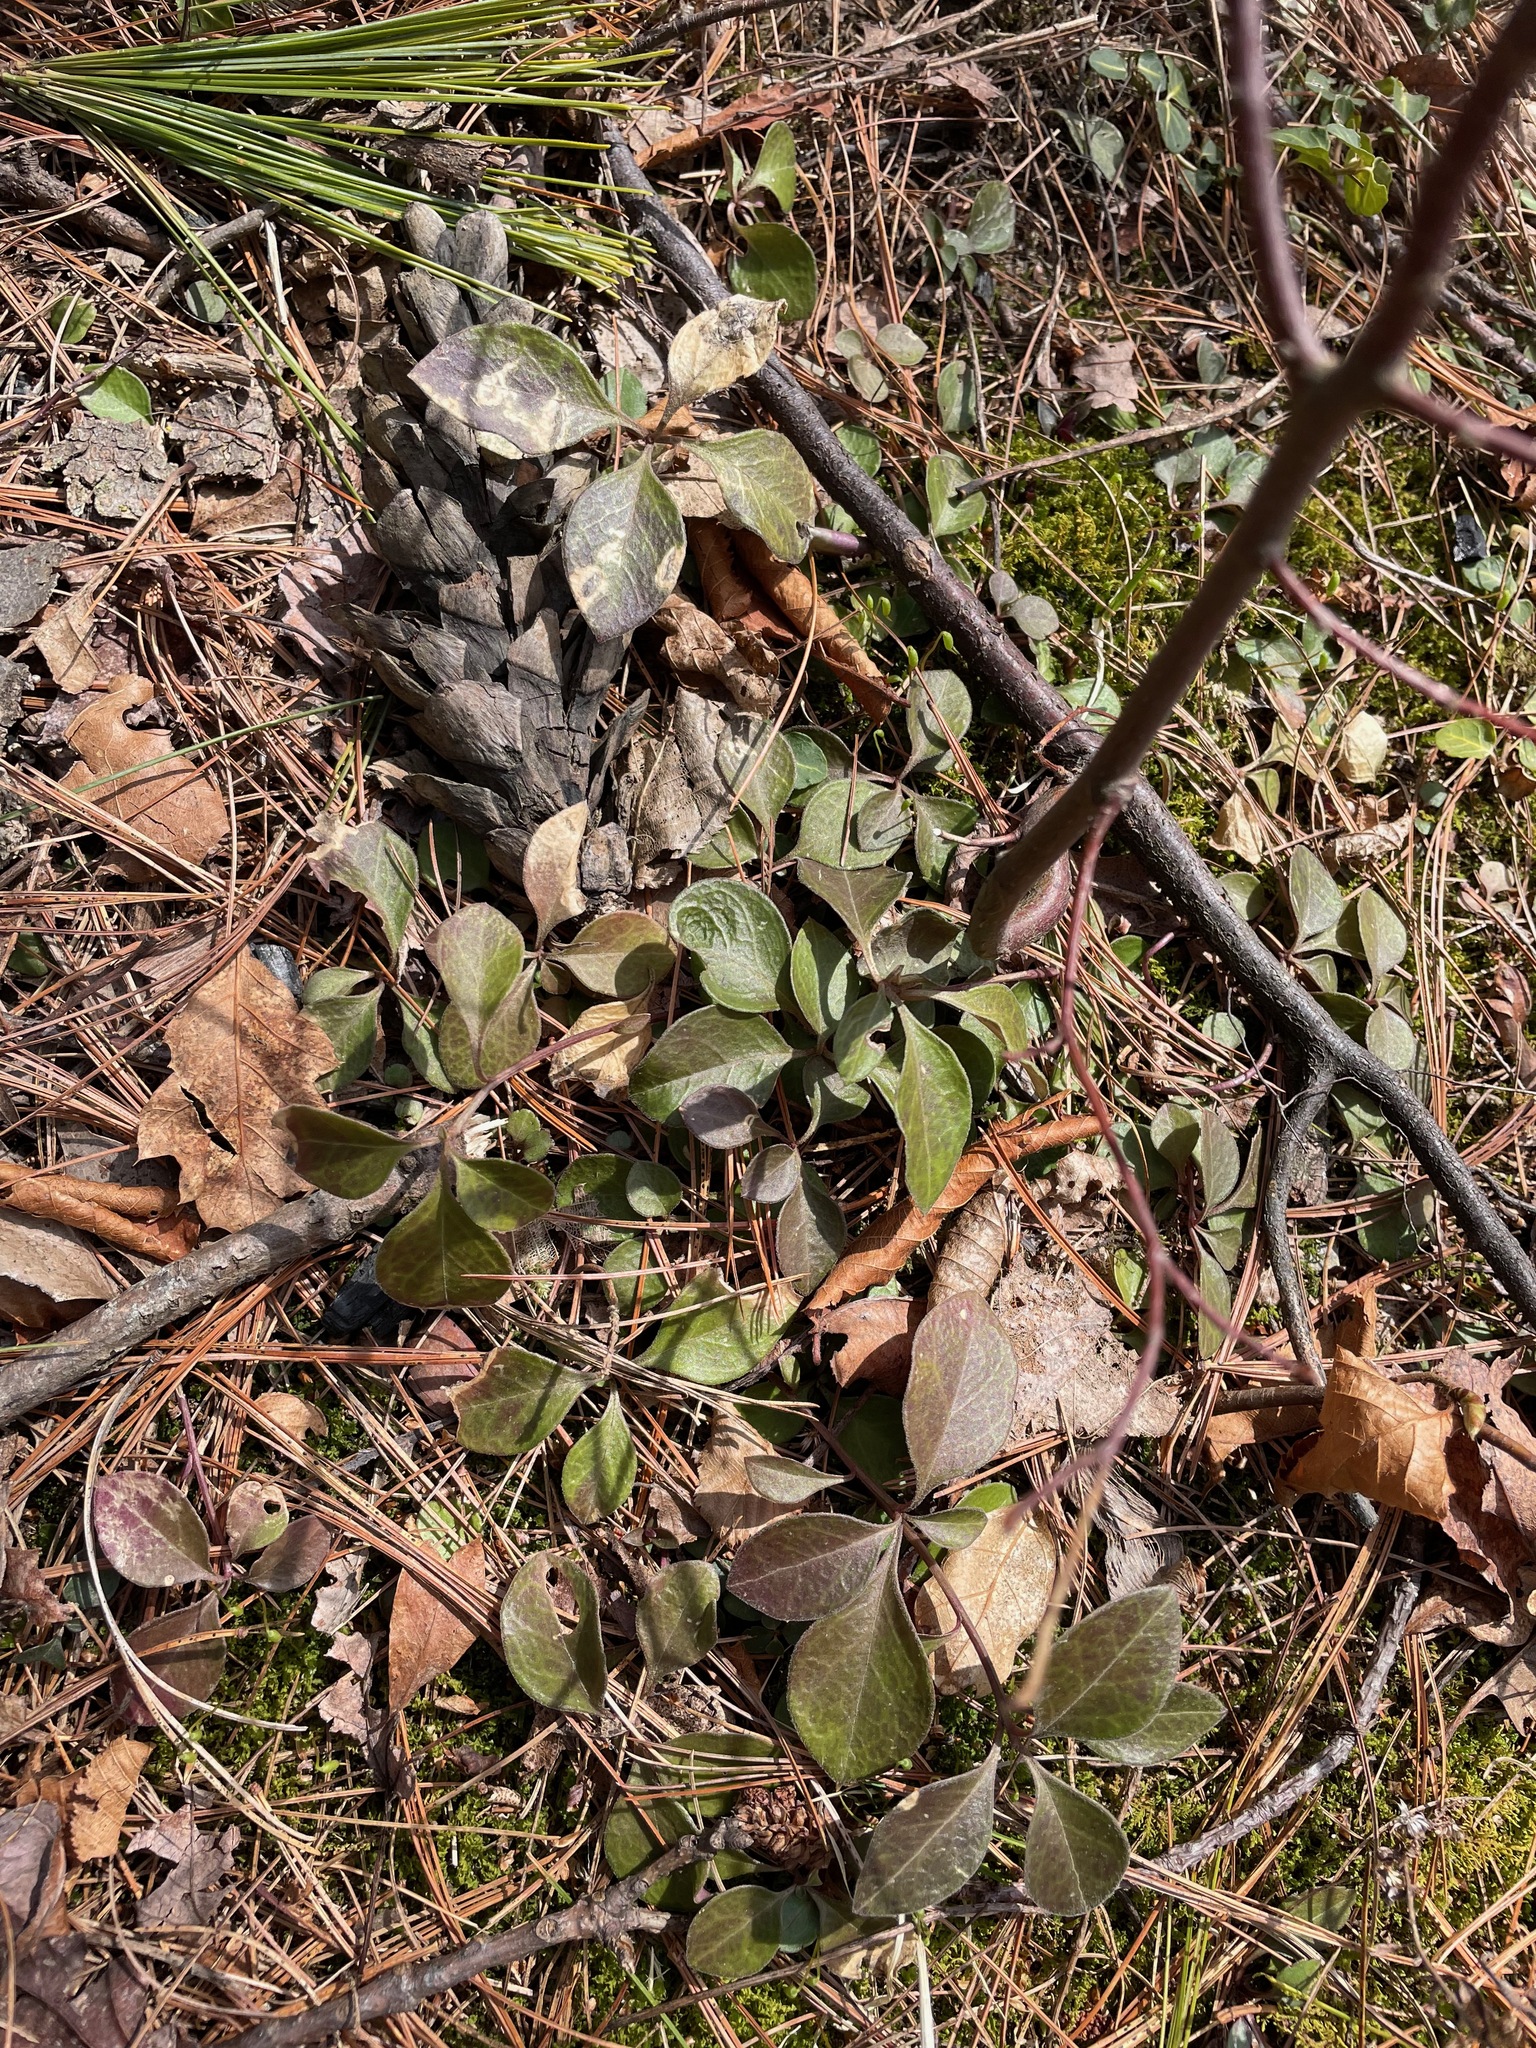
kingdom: Plantae
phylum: Tracheophyta
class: Magnoliopsida
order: Fabales
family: Polygalaceae
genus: Polygaloides
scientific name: Polygaloides paucifolia
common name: Bird-on-the-wing
